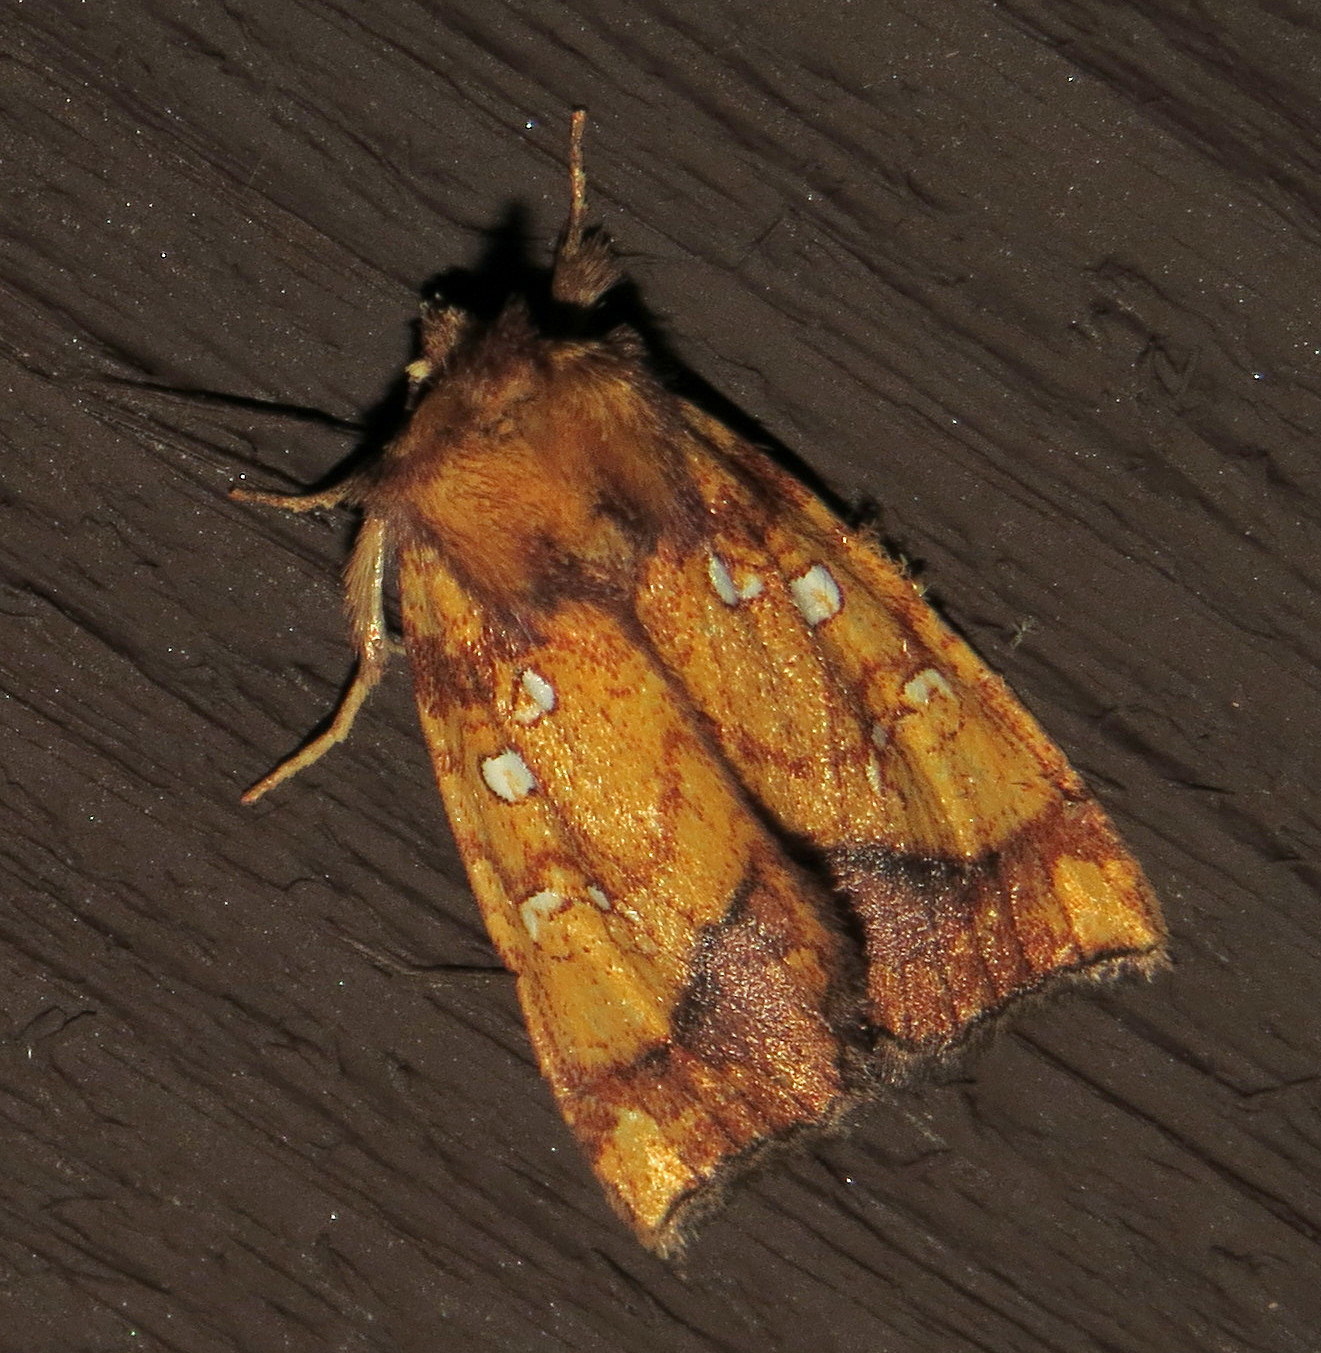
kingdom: Animalia
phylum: Arthropoda
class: Insecta
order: Lepidoptera
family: Noctuidae
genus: Papaipema
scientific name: Papaipema leucostigma
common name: Columbine borer moth
